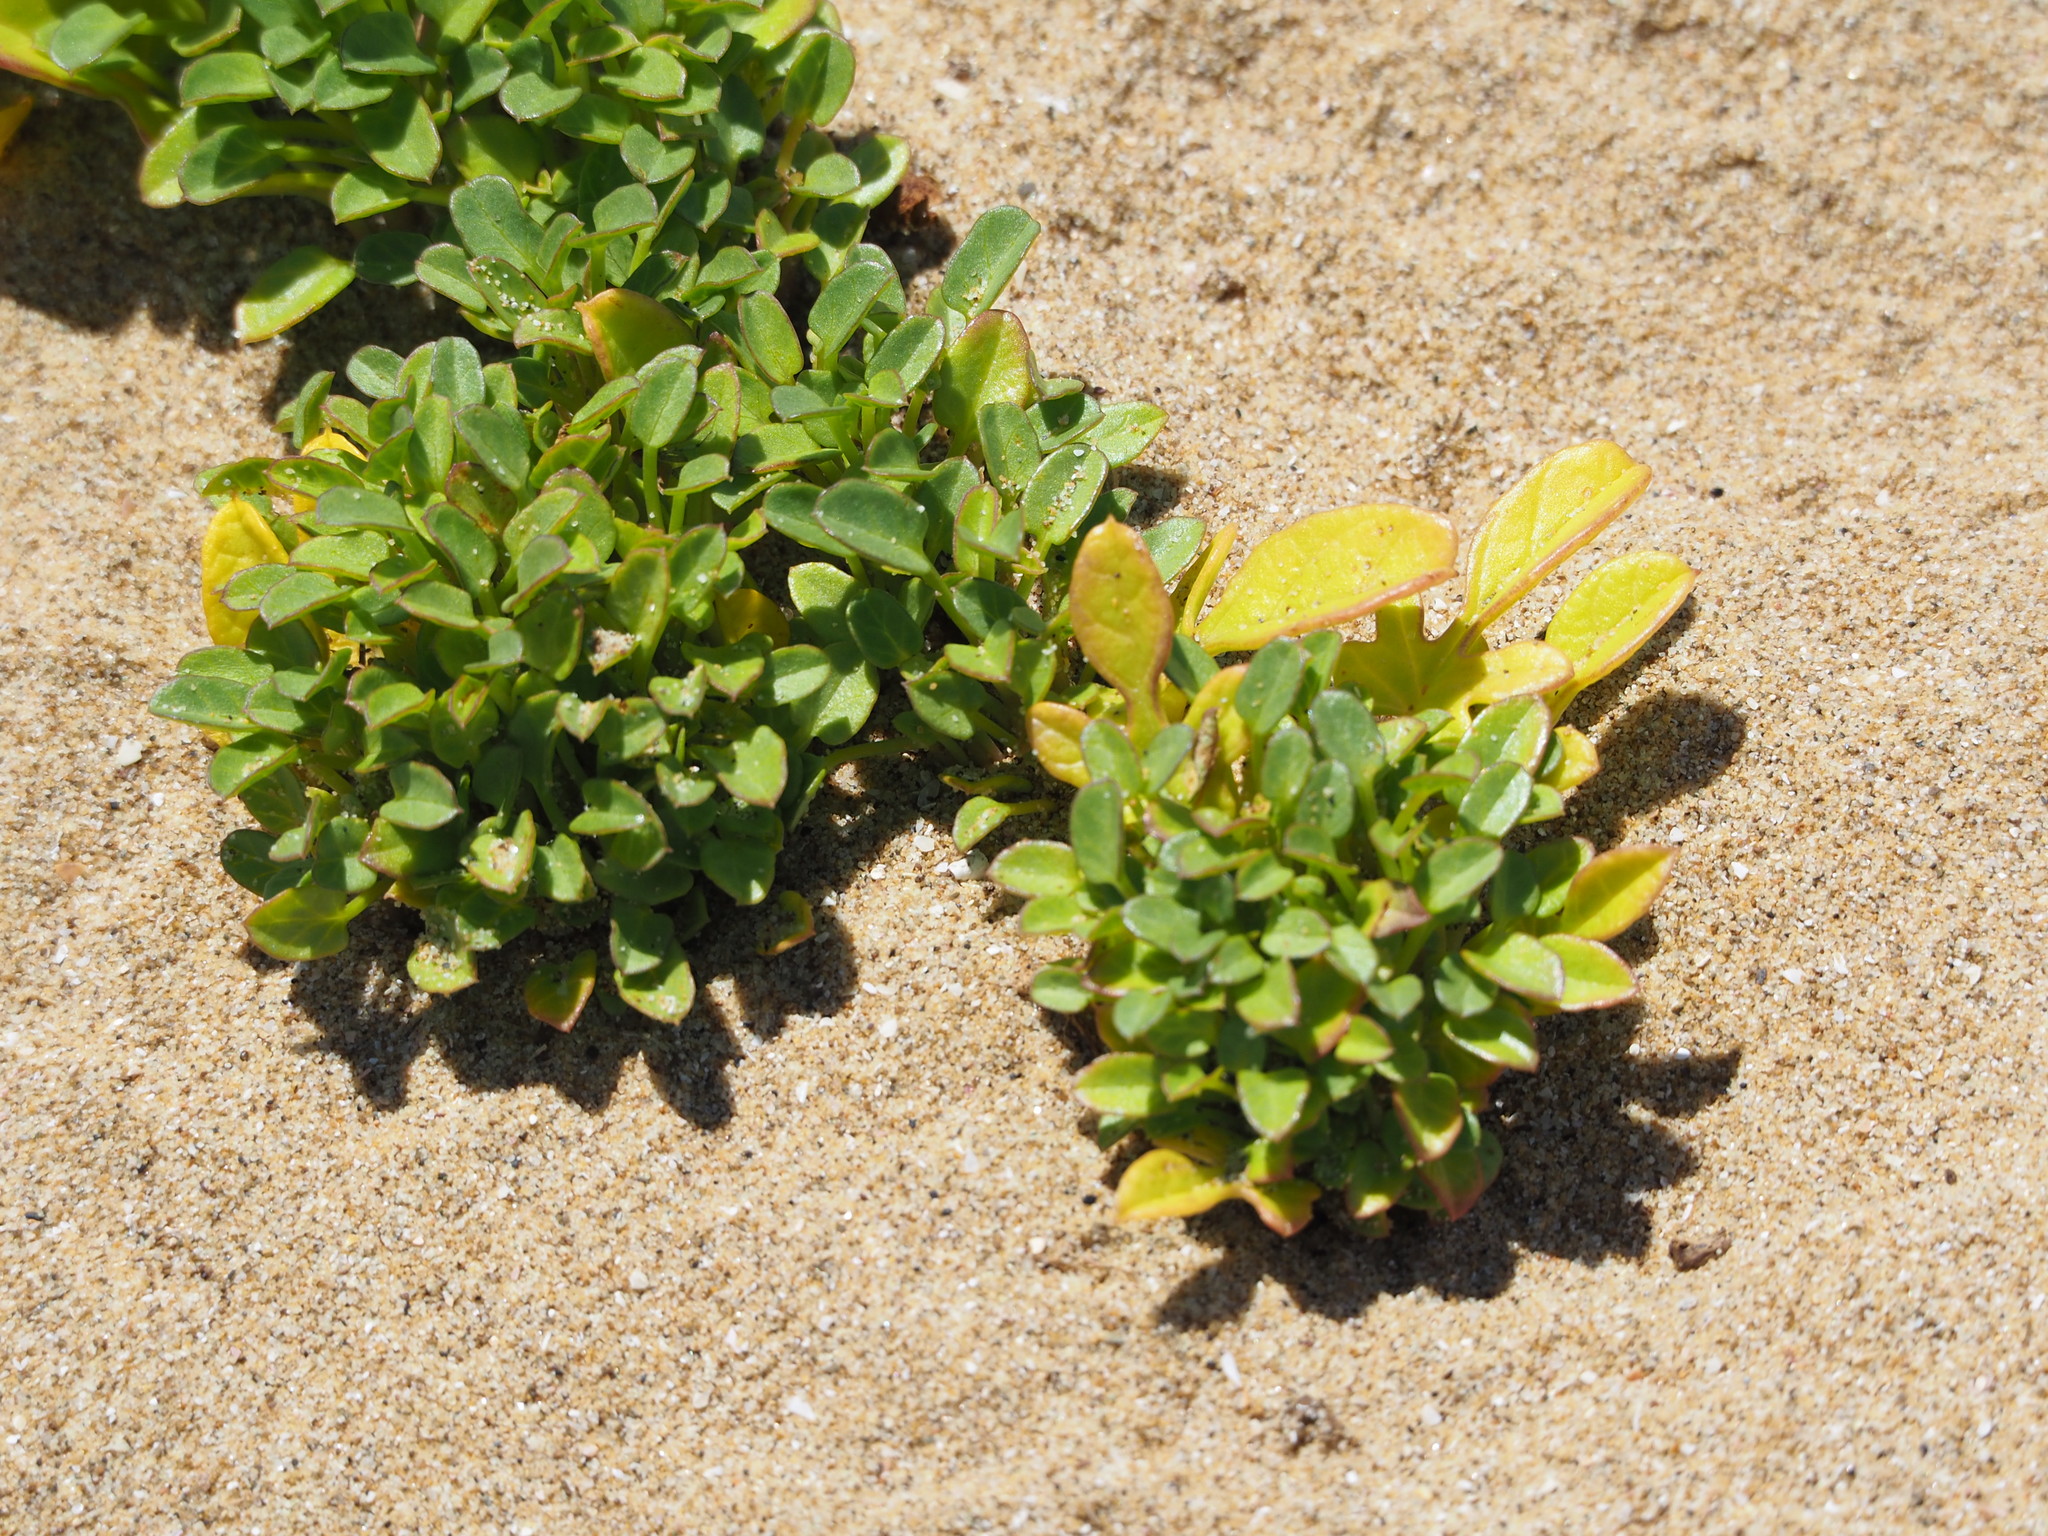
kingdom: Plantae
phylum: Tracheophyta
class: Magnoliopsida
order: Solanales
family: Convolvulaceae
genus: Ipomoea
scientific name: Ipomoea imperati
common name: Fiddle-leaf morning-glory
